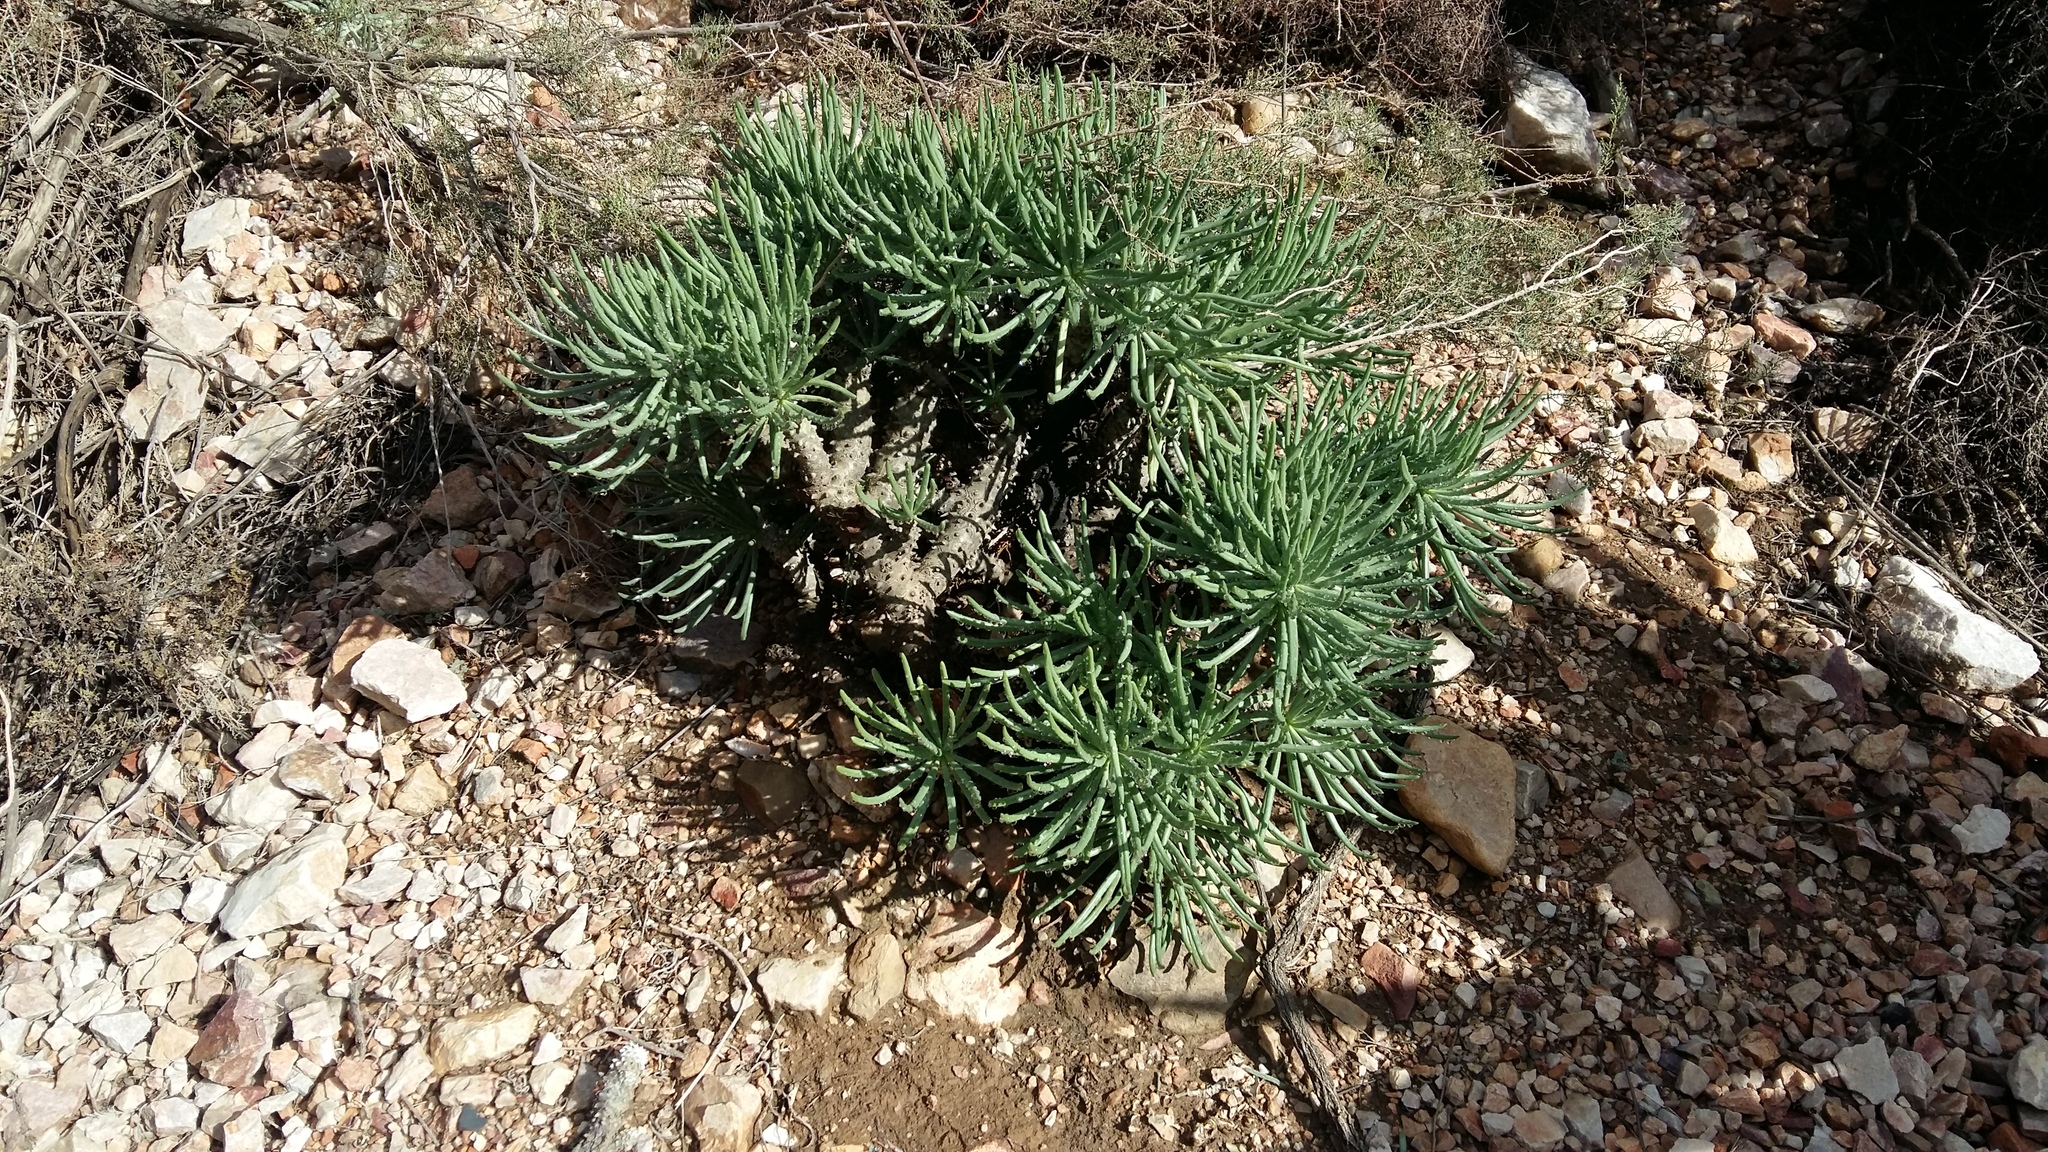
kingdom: Plantae
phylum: Tracheophyta
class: Magnoliopsida
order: Saxifragales
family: Crassulaceae
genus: Tylecodon
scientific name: Tylecodon cacaliodes
